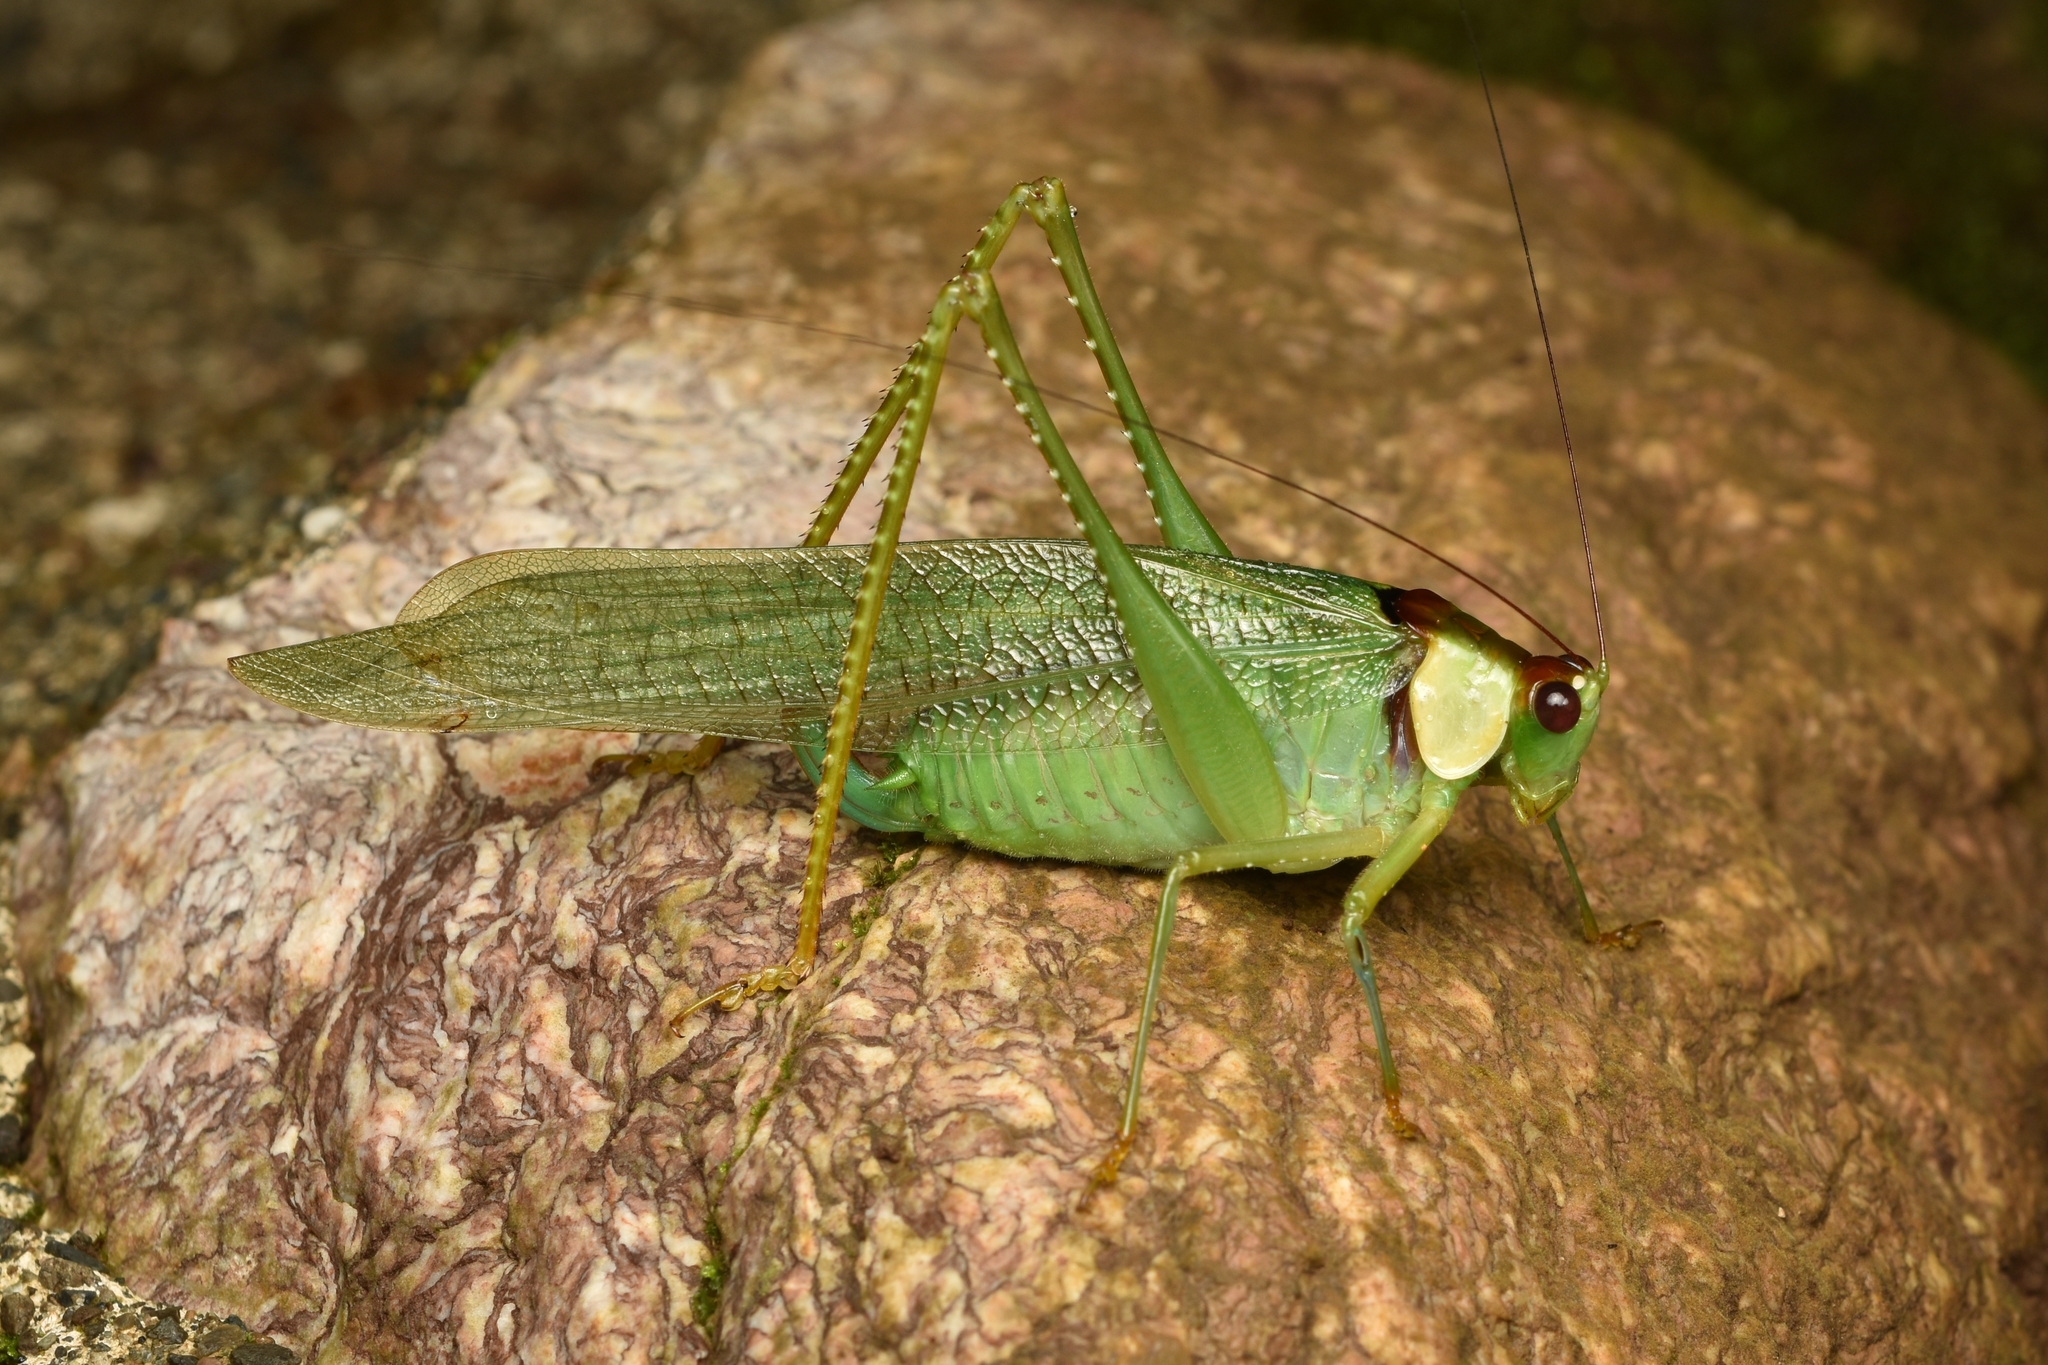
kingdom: Animalia
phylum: Arthropoda
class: Insecta
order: Orthoptera
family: Tettigoniidae
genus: Euceraia
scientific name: Euceraia atryx
